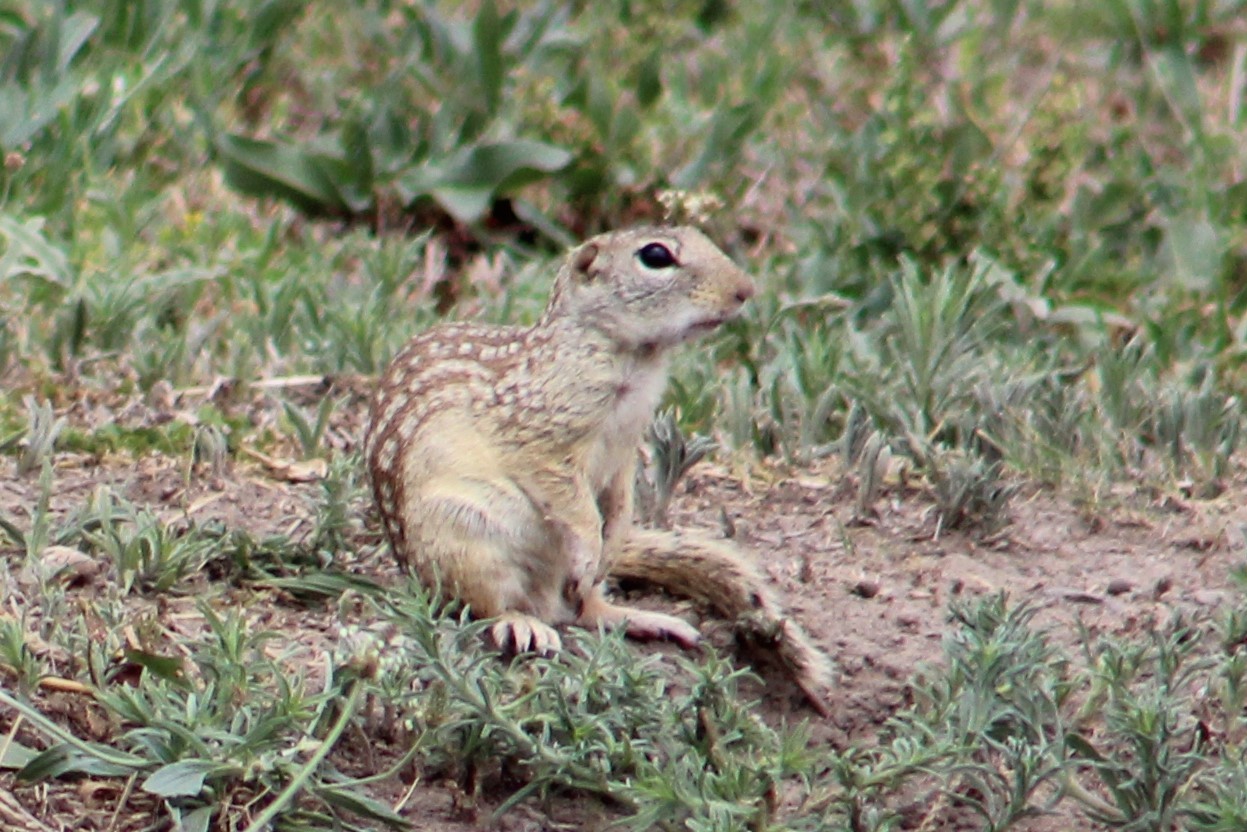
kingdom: Animalia
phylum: Chordata
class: Mammalia
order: Rodentia
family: Sciuridae
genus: Ictidomys
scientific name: Ictidomys parvidens
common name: Rio grande ground squirrel
